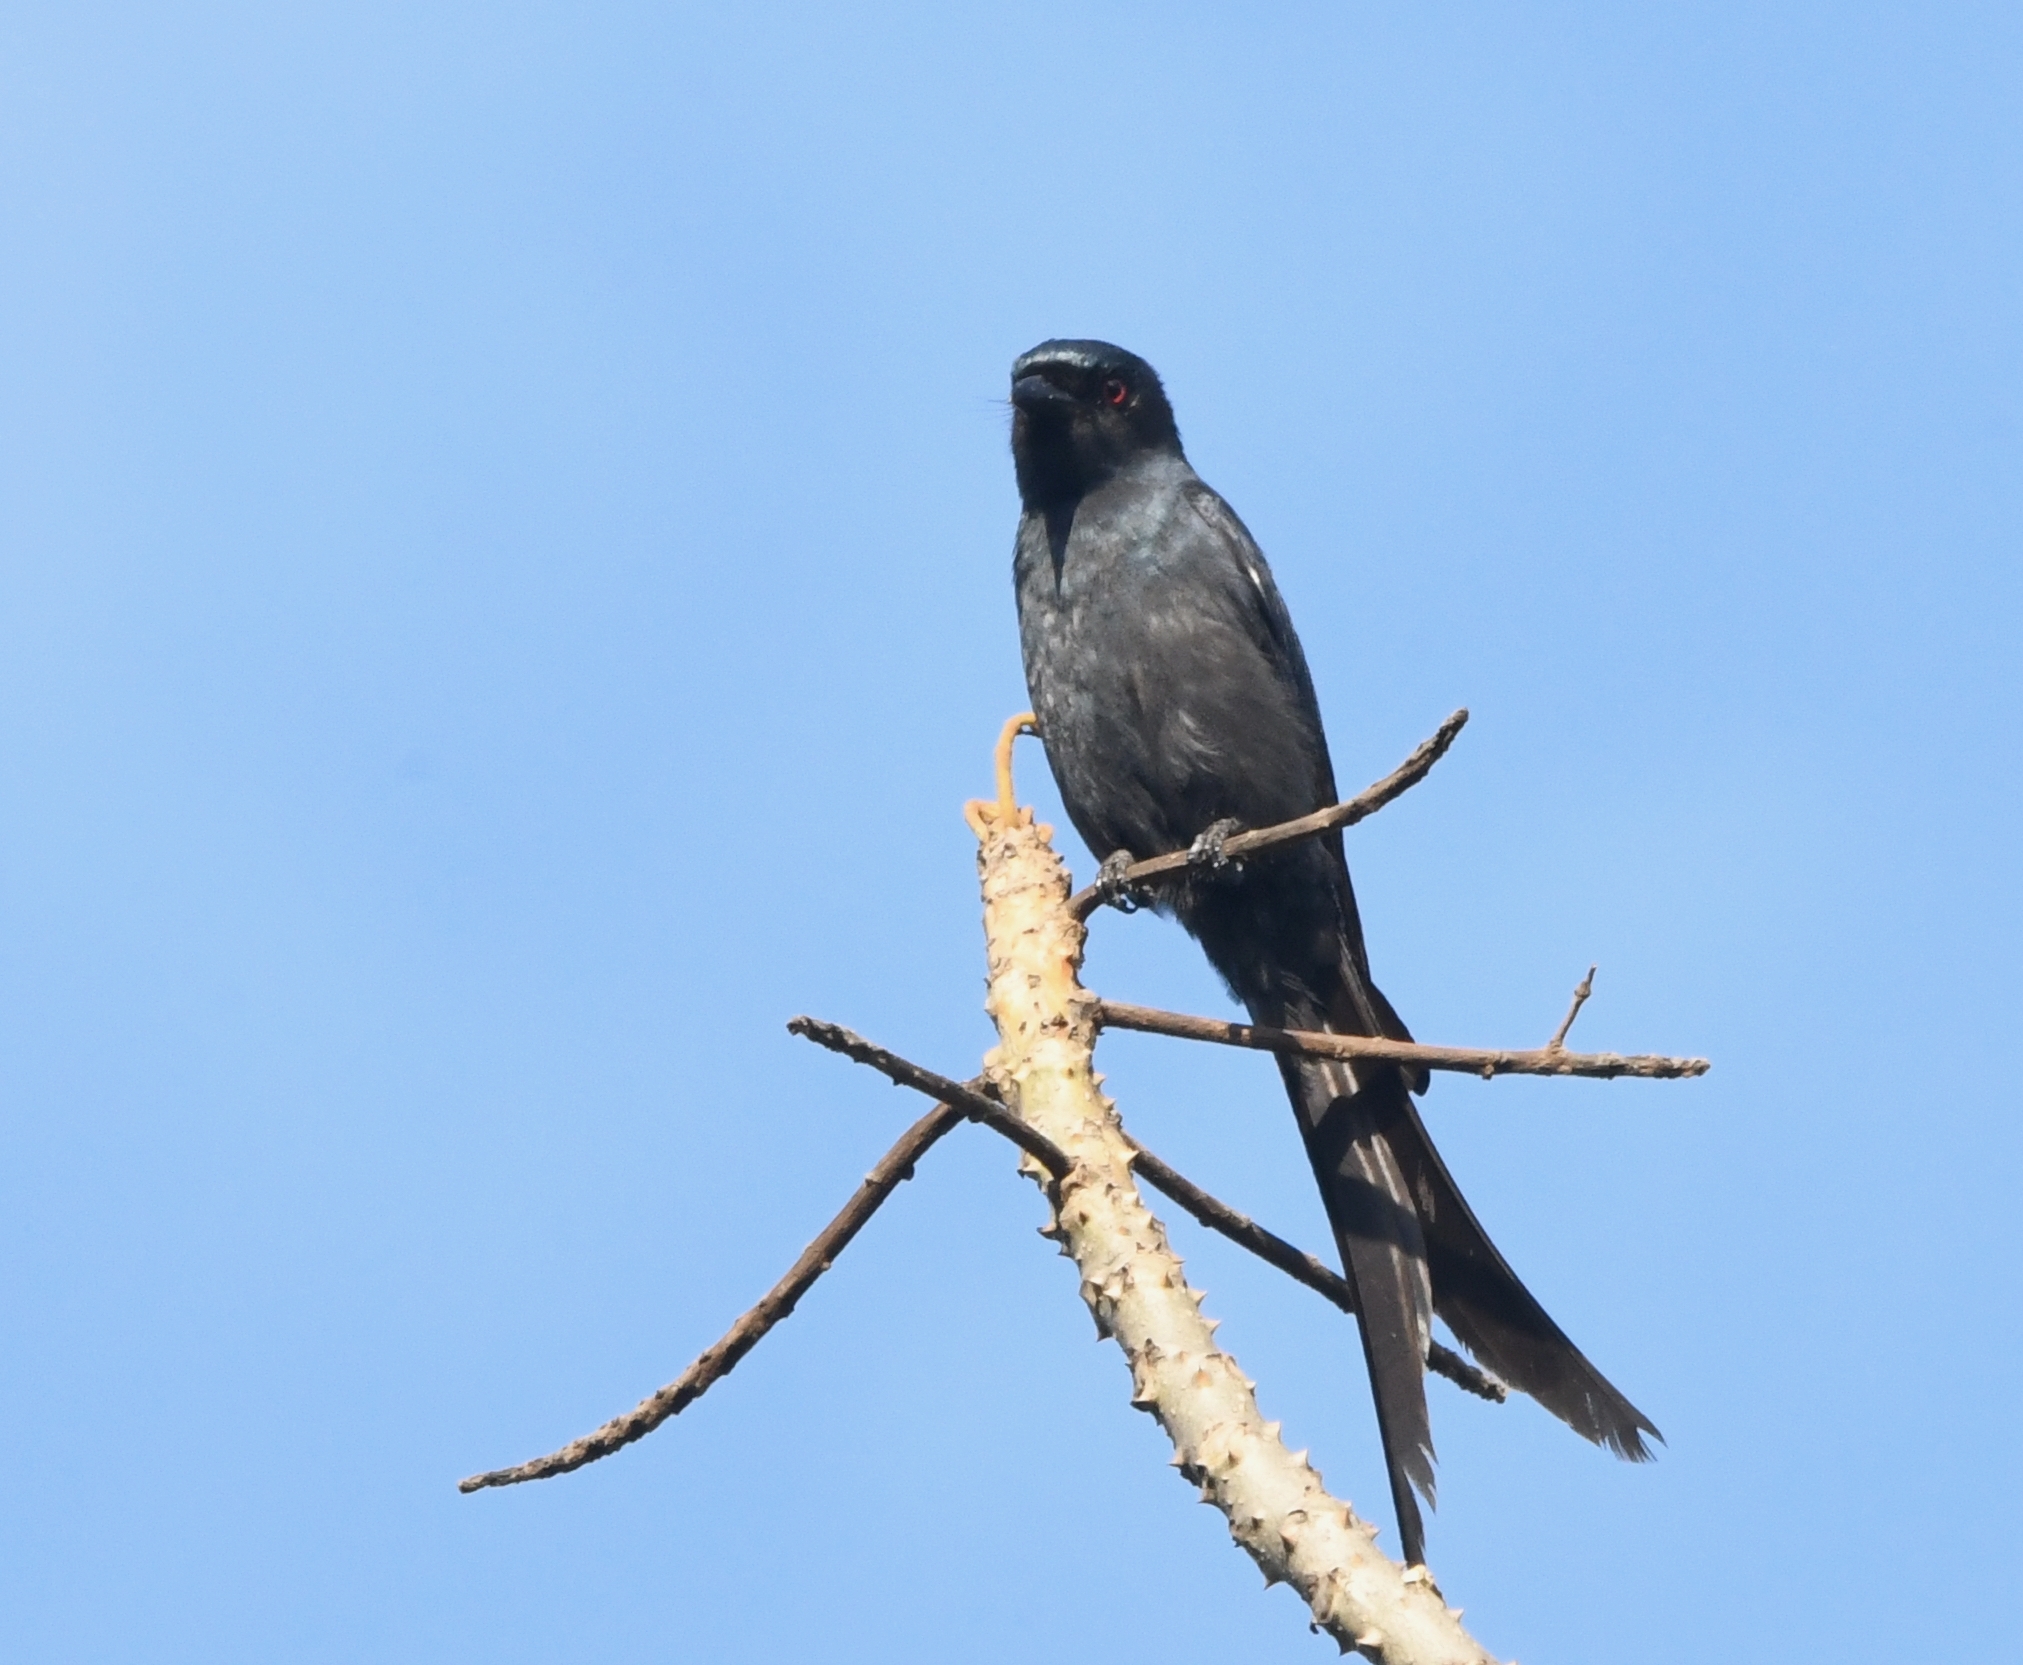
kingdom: Animalia
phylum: Chordata
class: Aves
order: Passeriformes
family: Dicruridae
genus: Dicrurus
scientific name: Dicrurus leucophaeus
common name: Ashy drongo
